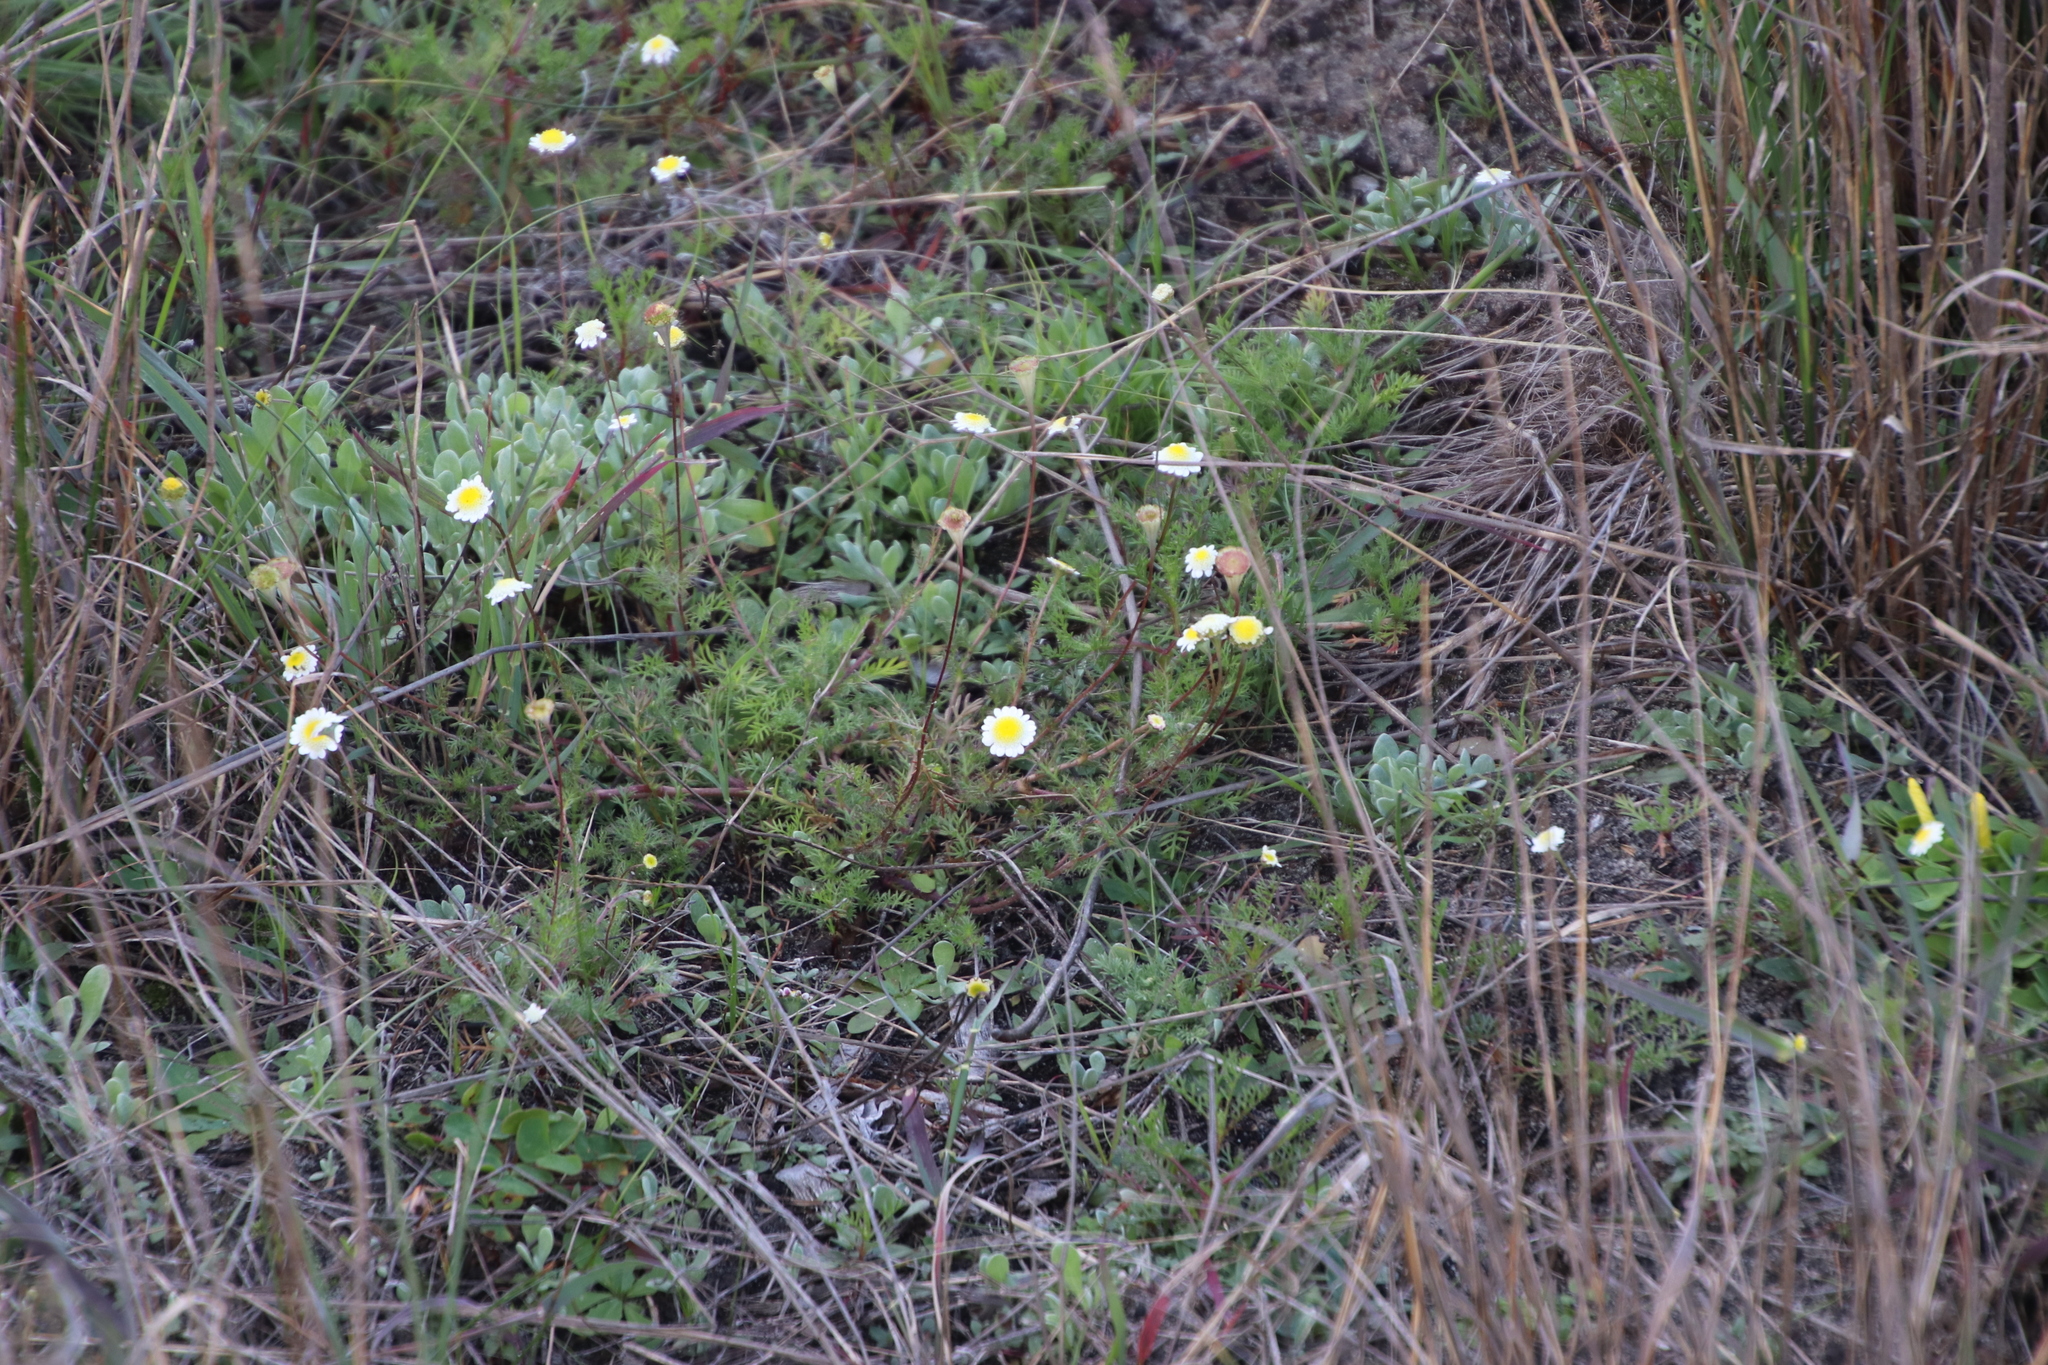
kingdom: Plantae
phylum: Tracheophyta
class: Magnoliopsida
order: Asterales
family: Asteraceae
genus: Cotula
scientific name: Cotula turbinata
